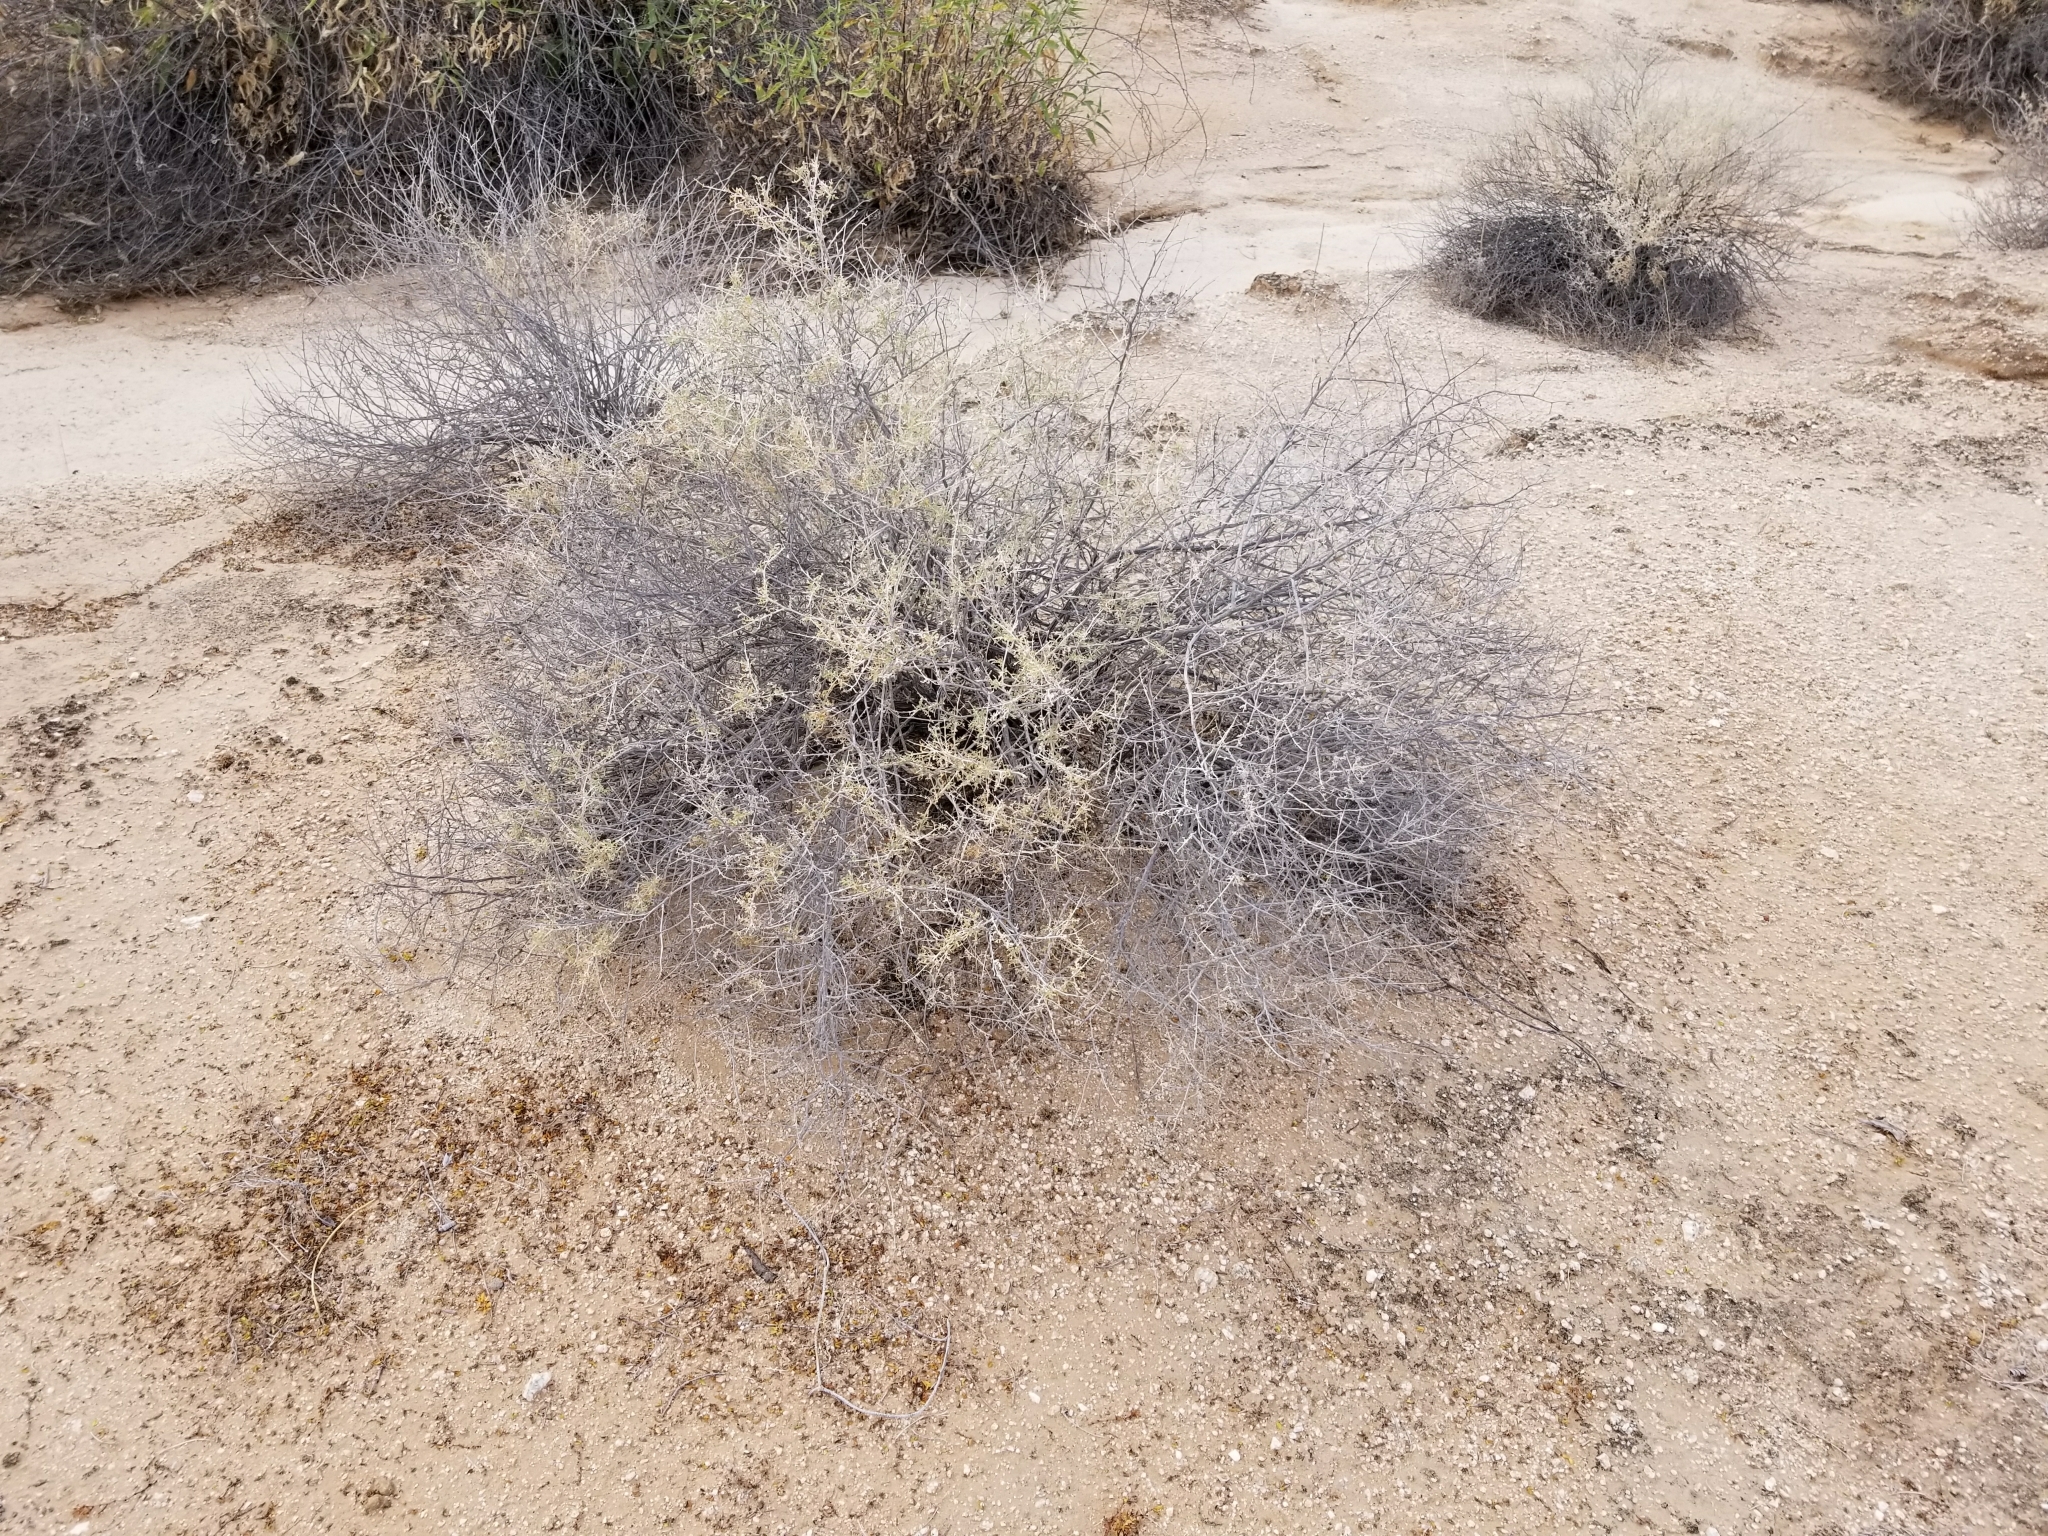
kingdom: Plantae
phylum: Tracheophyta
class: Magnoliopsida
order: Asterales
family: Asteraceae
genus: Ambrosia
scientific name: Ambrosia dumosa
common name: Bur-sage
